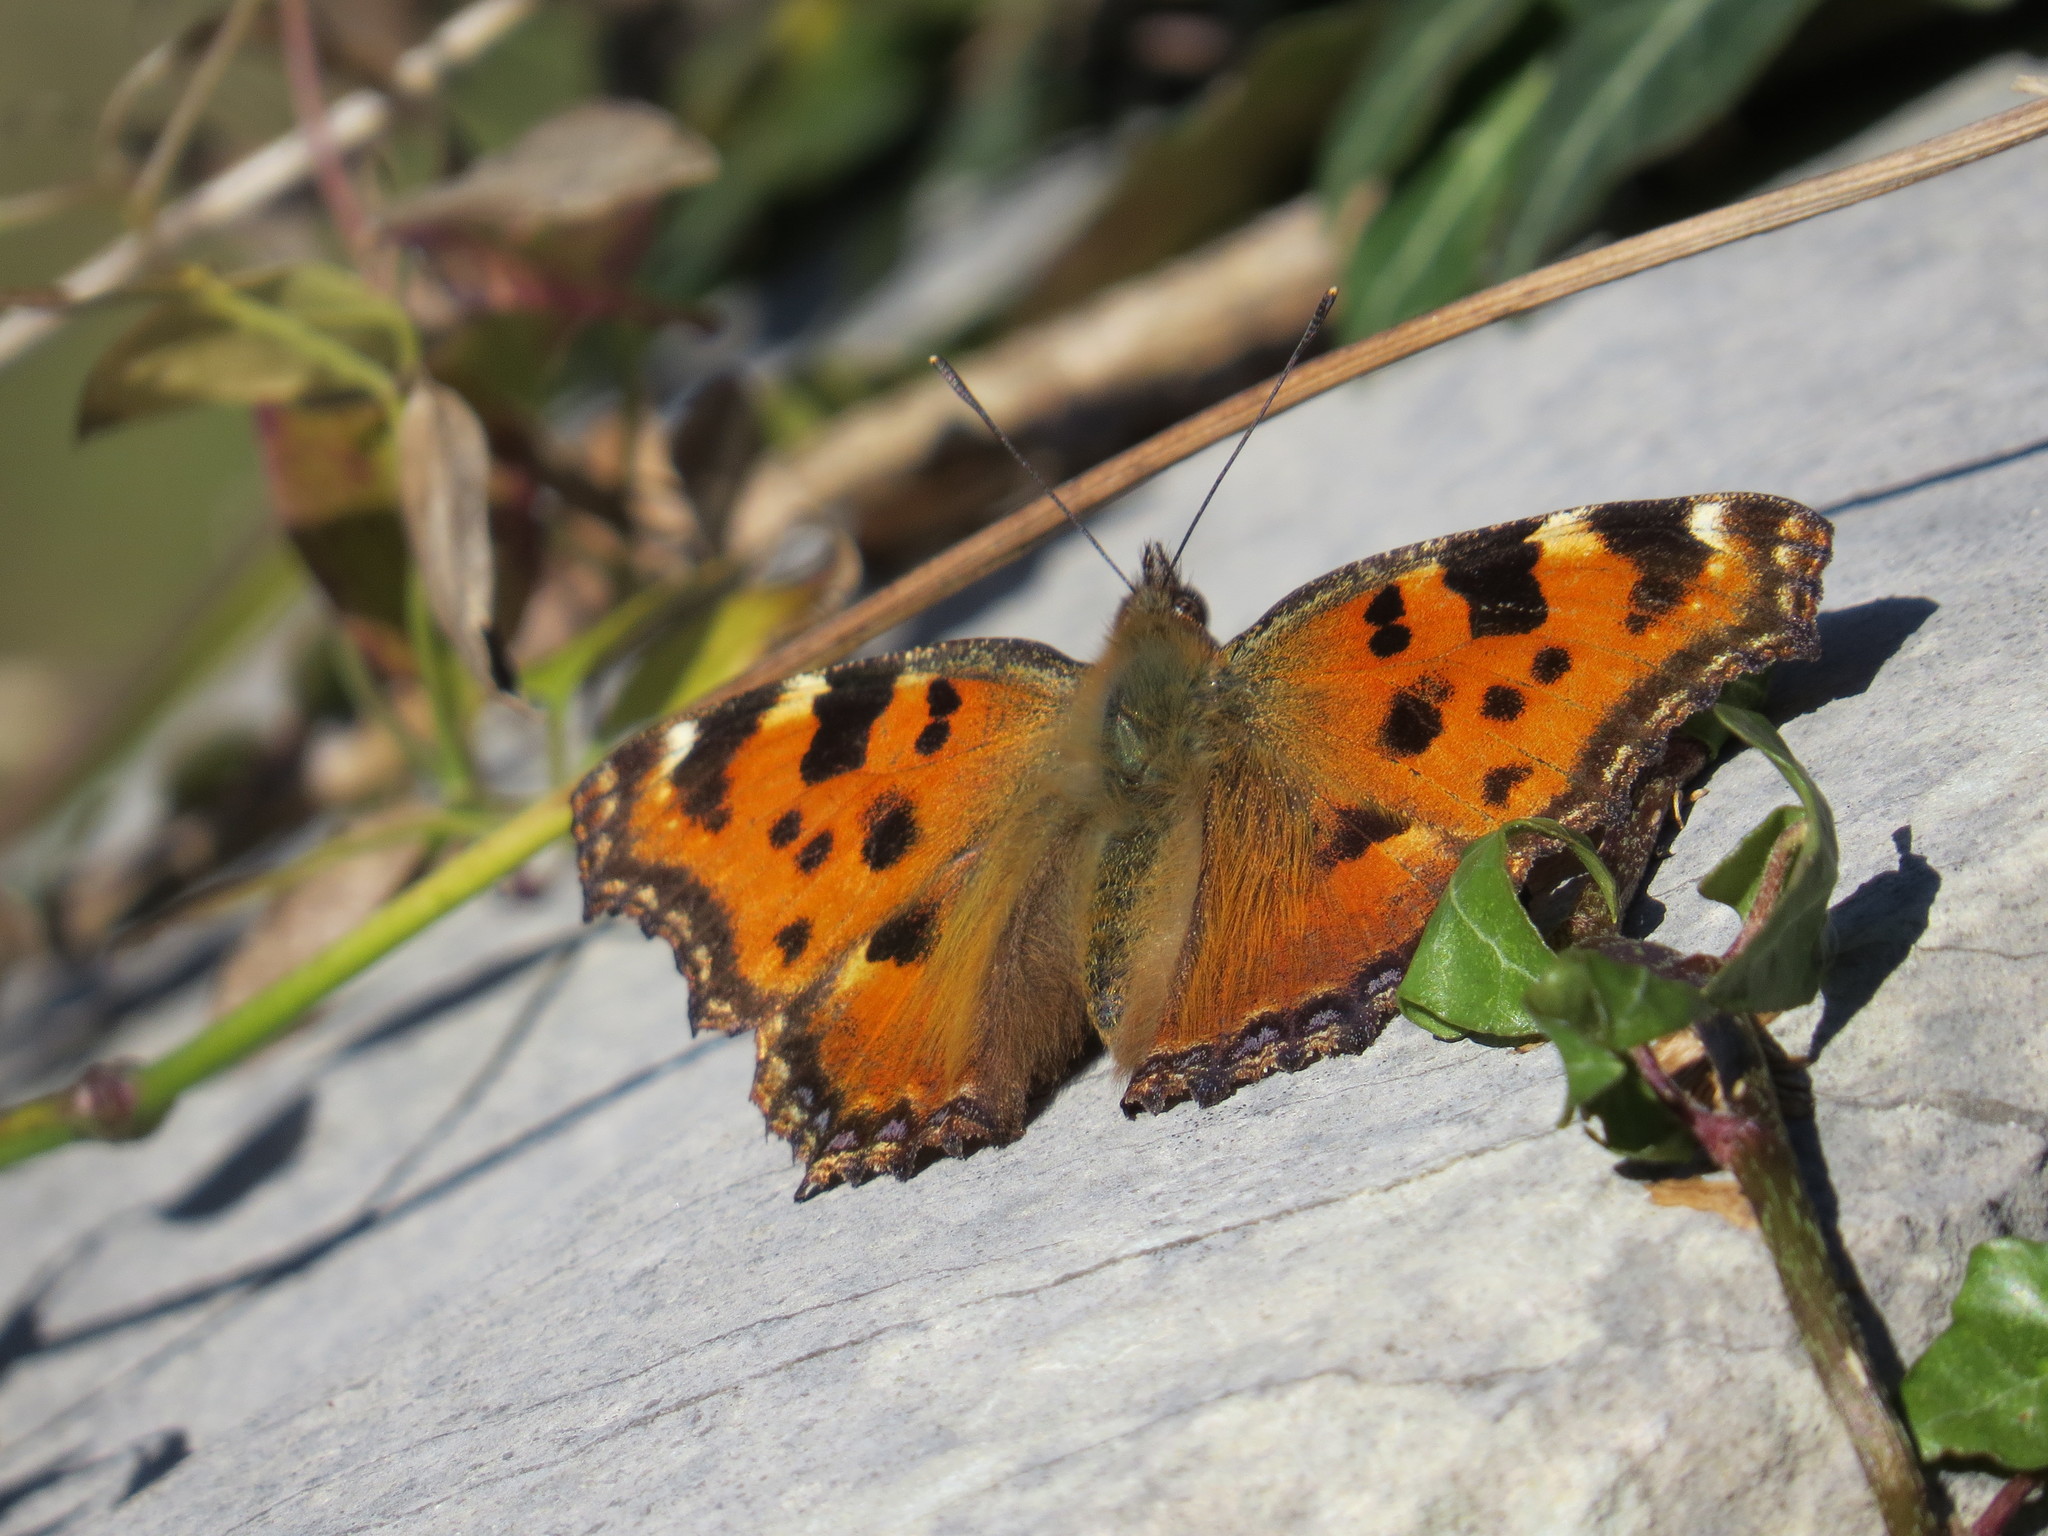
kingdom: Animalia
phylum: Arthropoda
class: Insecta
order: Lepidoptera
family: Nymphalidae
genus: Nymphalis
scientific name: Nymphalis polychloros
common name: Large tortoiseshell
